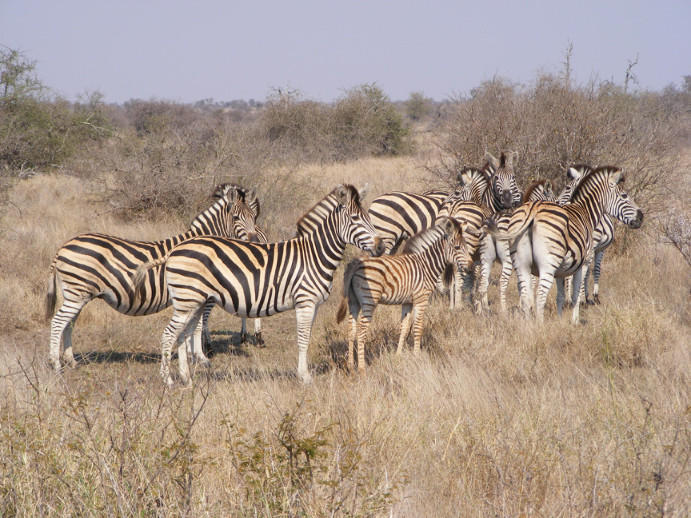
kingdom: Animalia
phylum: Chordata
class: Mammalia
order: Perissodactyla
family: Equidae
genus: Equus
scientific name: Equus quagga
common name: Plains zebra
